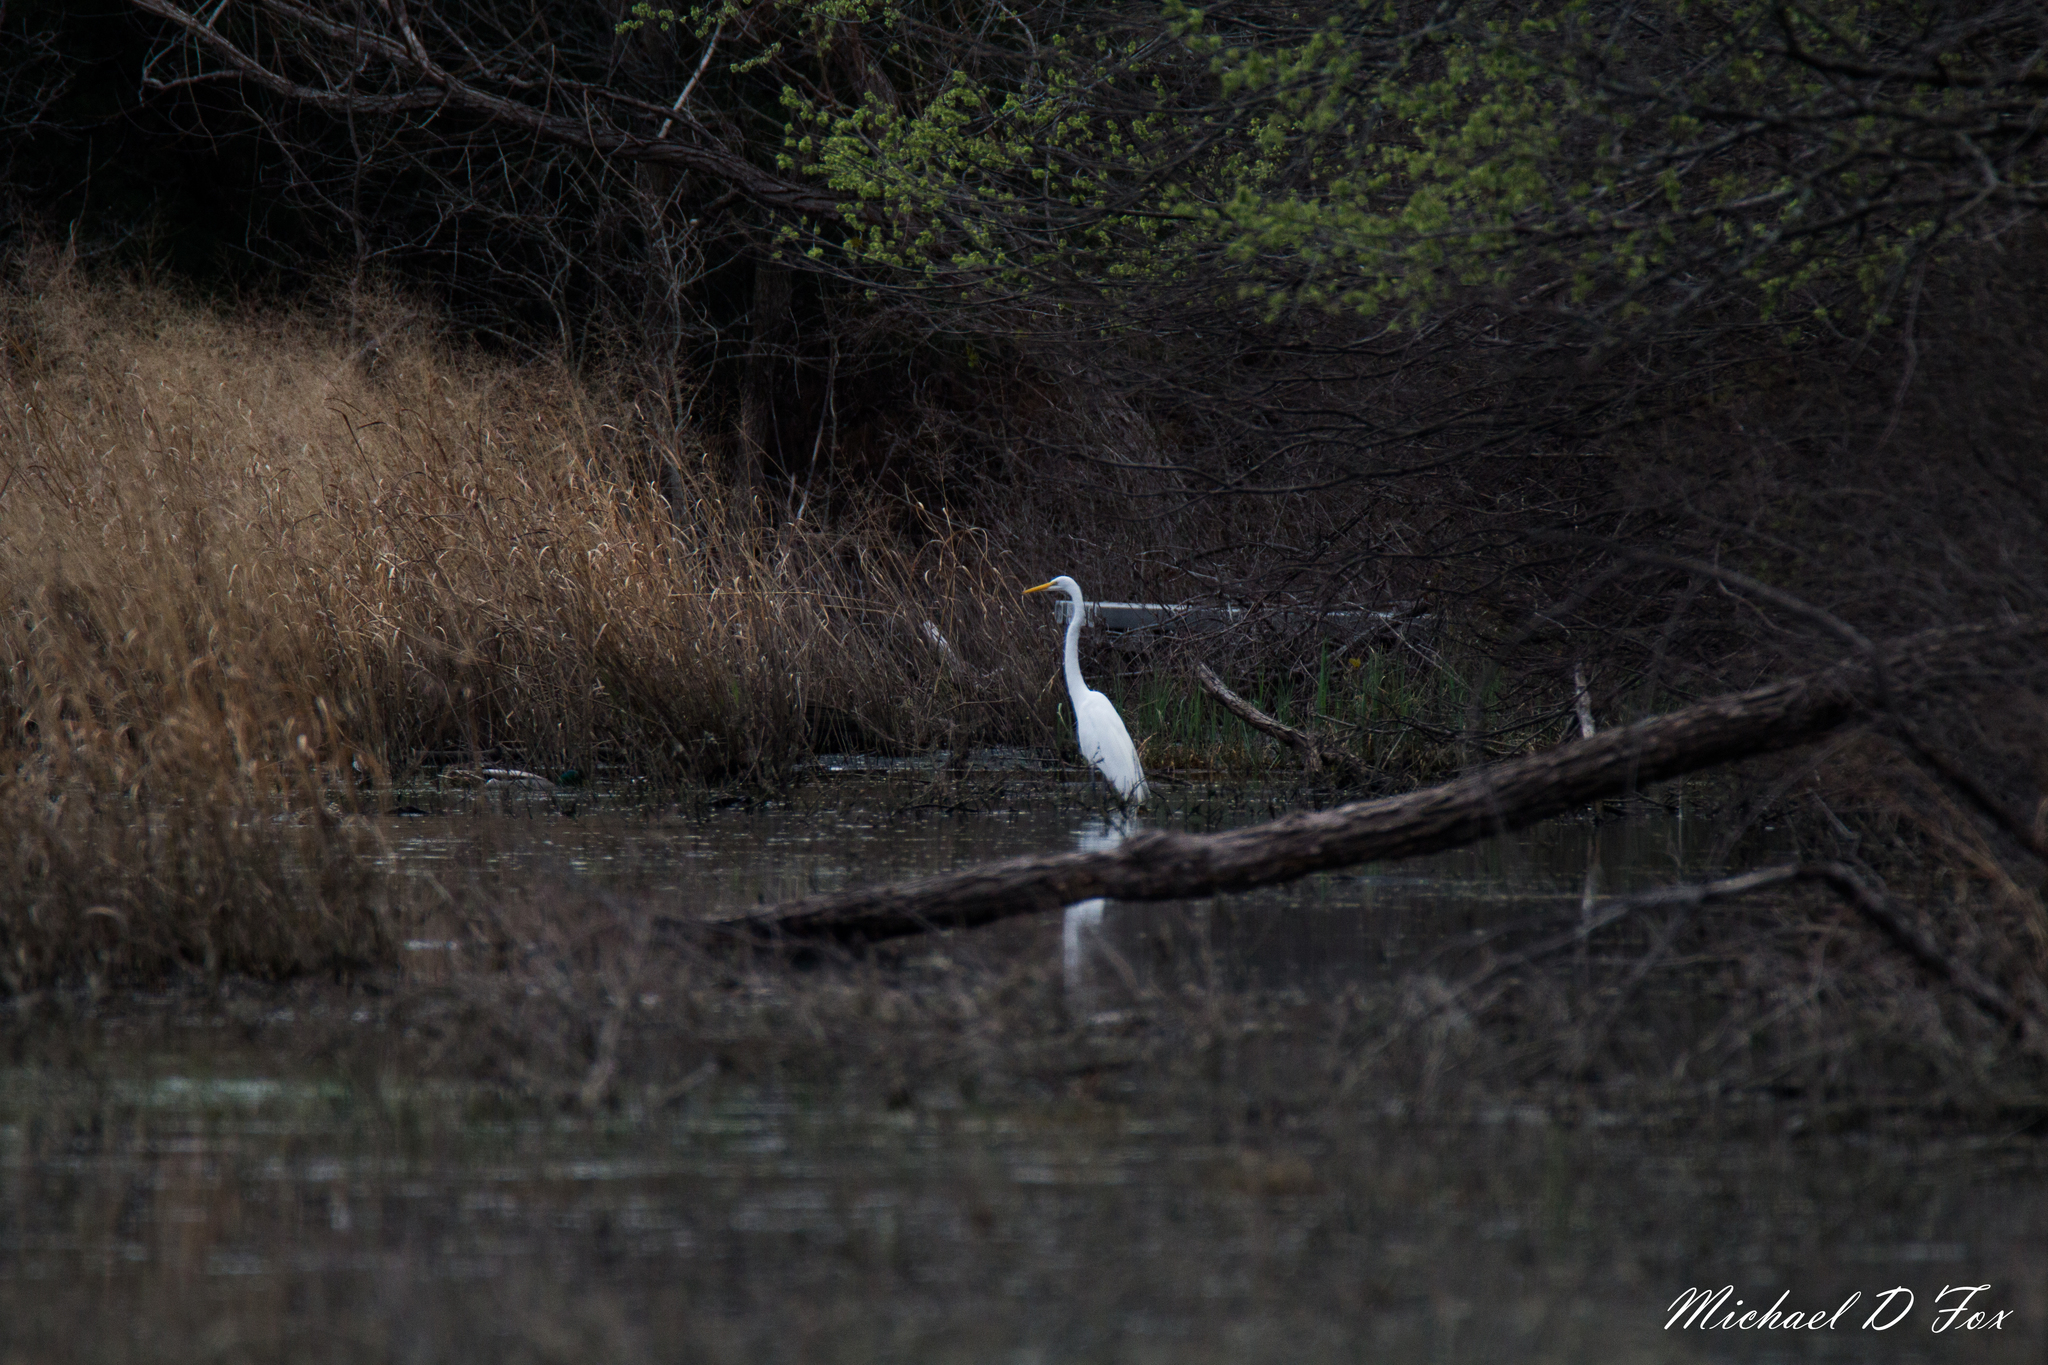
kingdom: Animalia
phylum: Chordata
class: Aves
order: Pelecaniformes
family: Ardeidae
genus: Ardea
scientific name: Ardea alba
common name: Great egret
